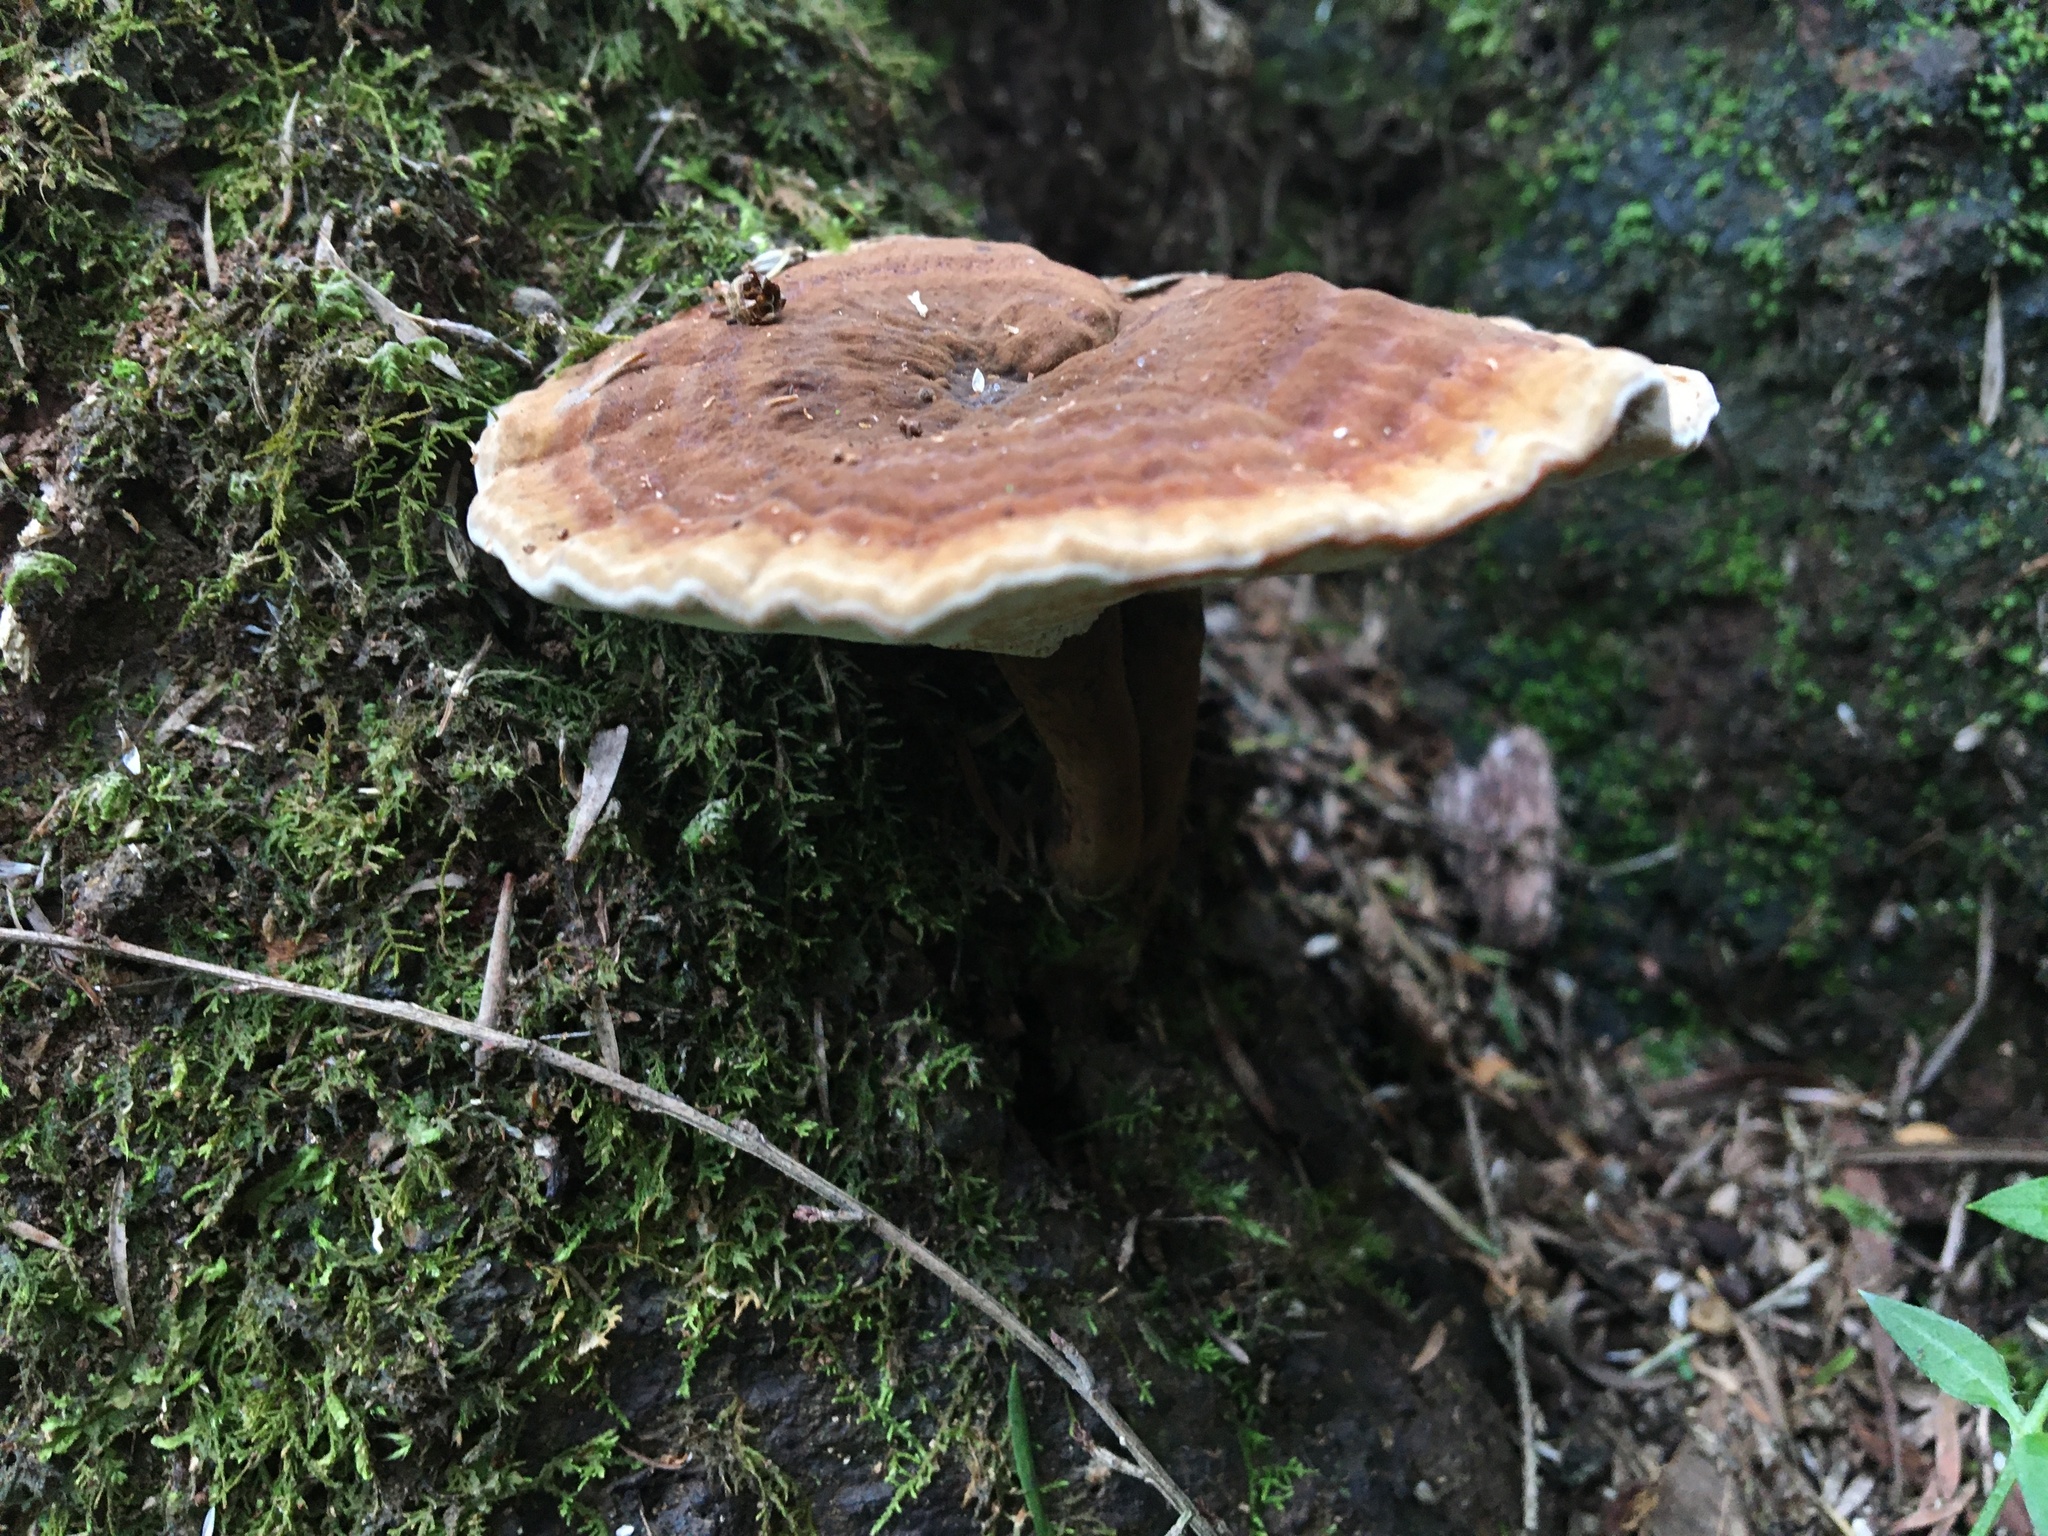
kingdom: Fungi
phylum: Basidiomycota
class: Agaricomycetes
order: Polyporales
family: Ganodermataceae
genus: Sanguinoderma
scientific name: Sanguinoderma rude
